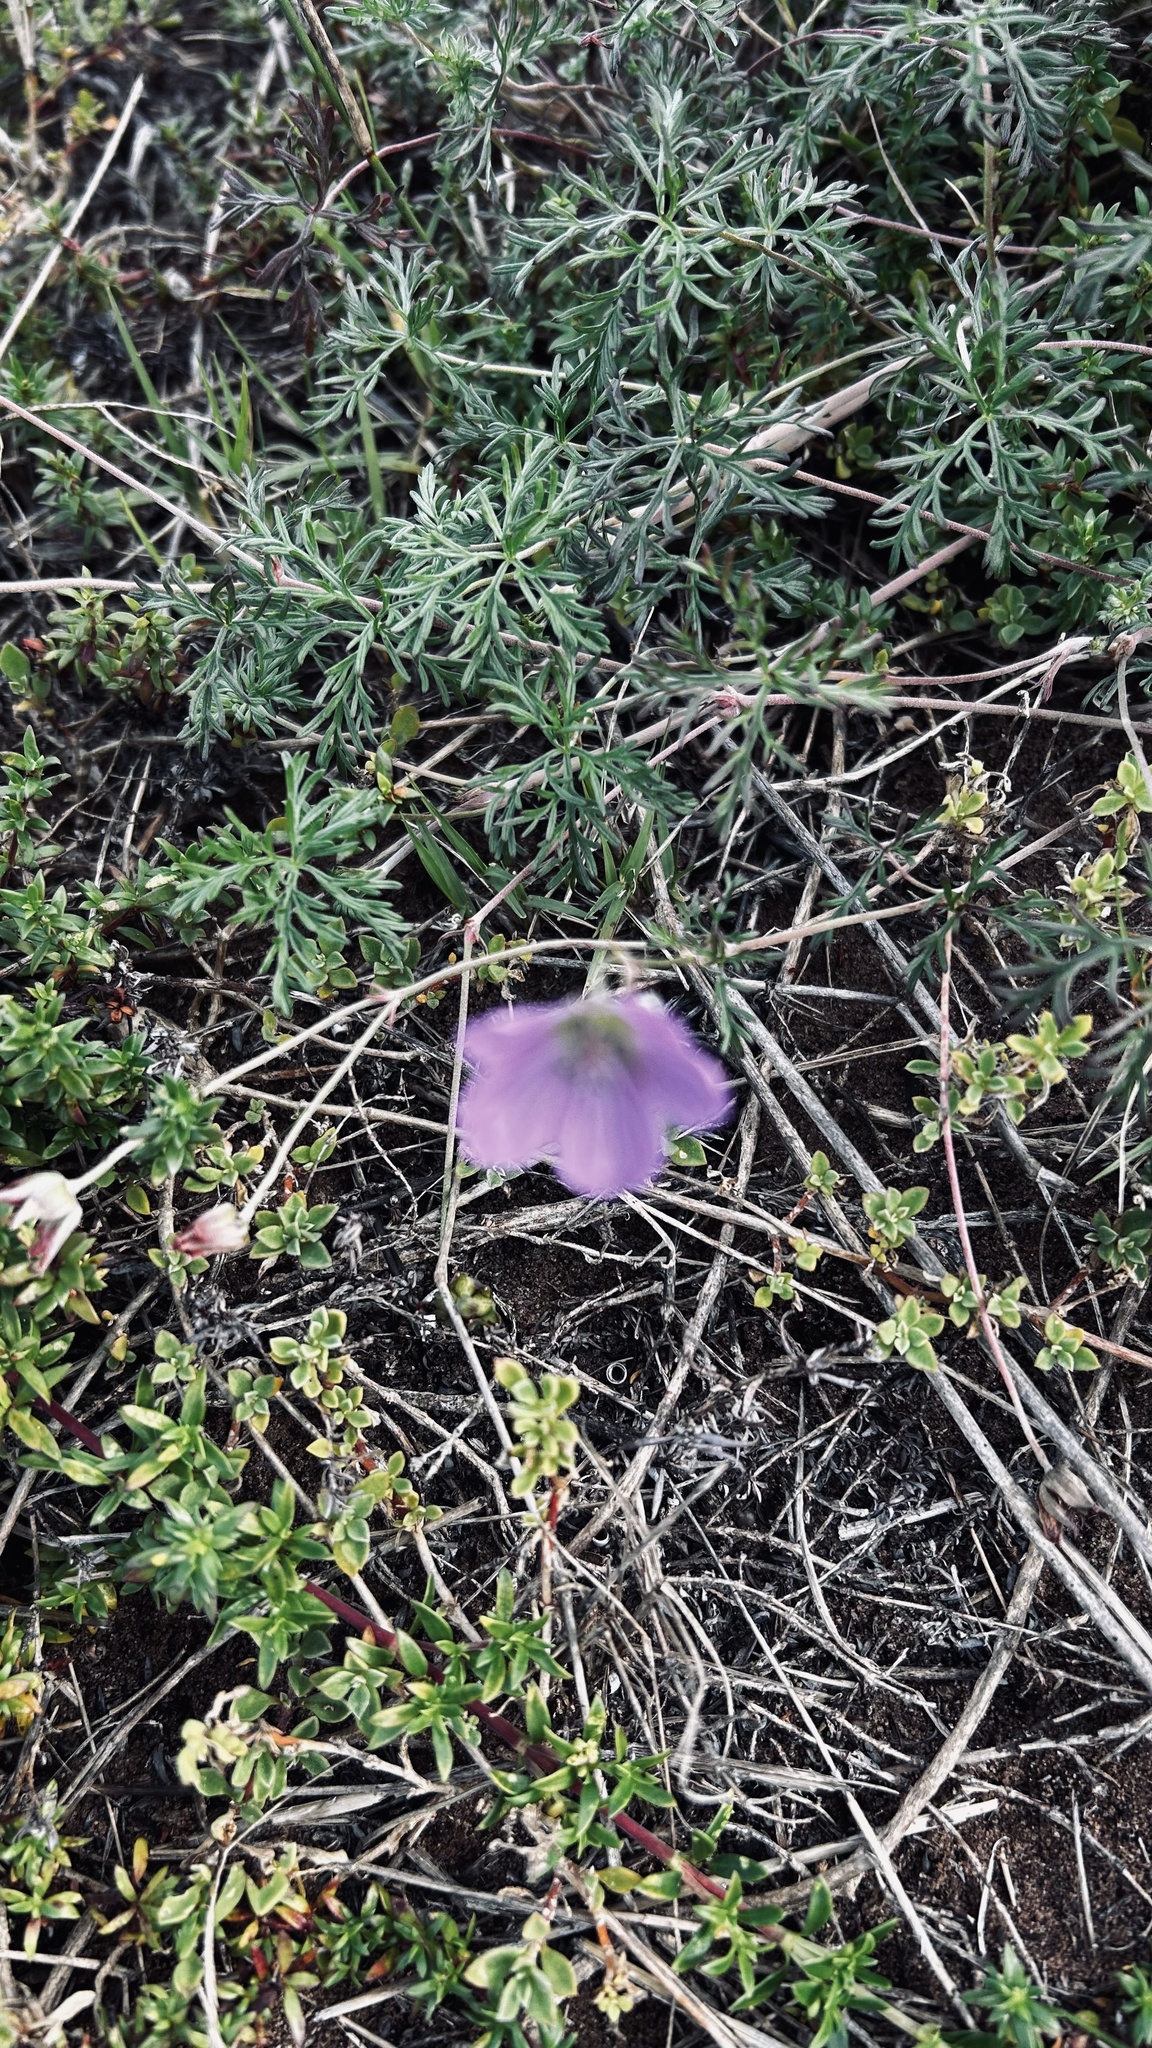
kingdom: Plantae
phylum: Tracheophyta
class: Magnoliopsida
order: Geraniales
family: Geraniaceae
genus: Geranium
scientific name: Geranium incanum
